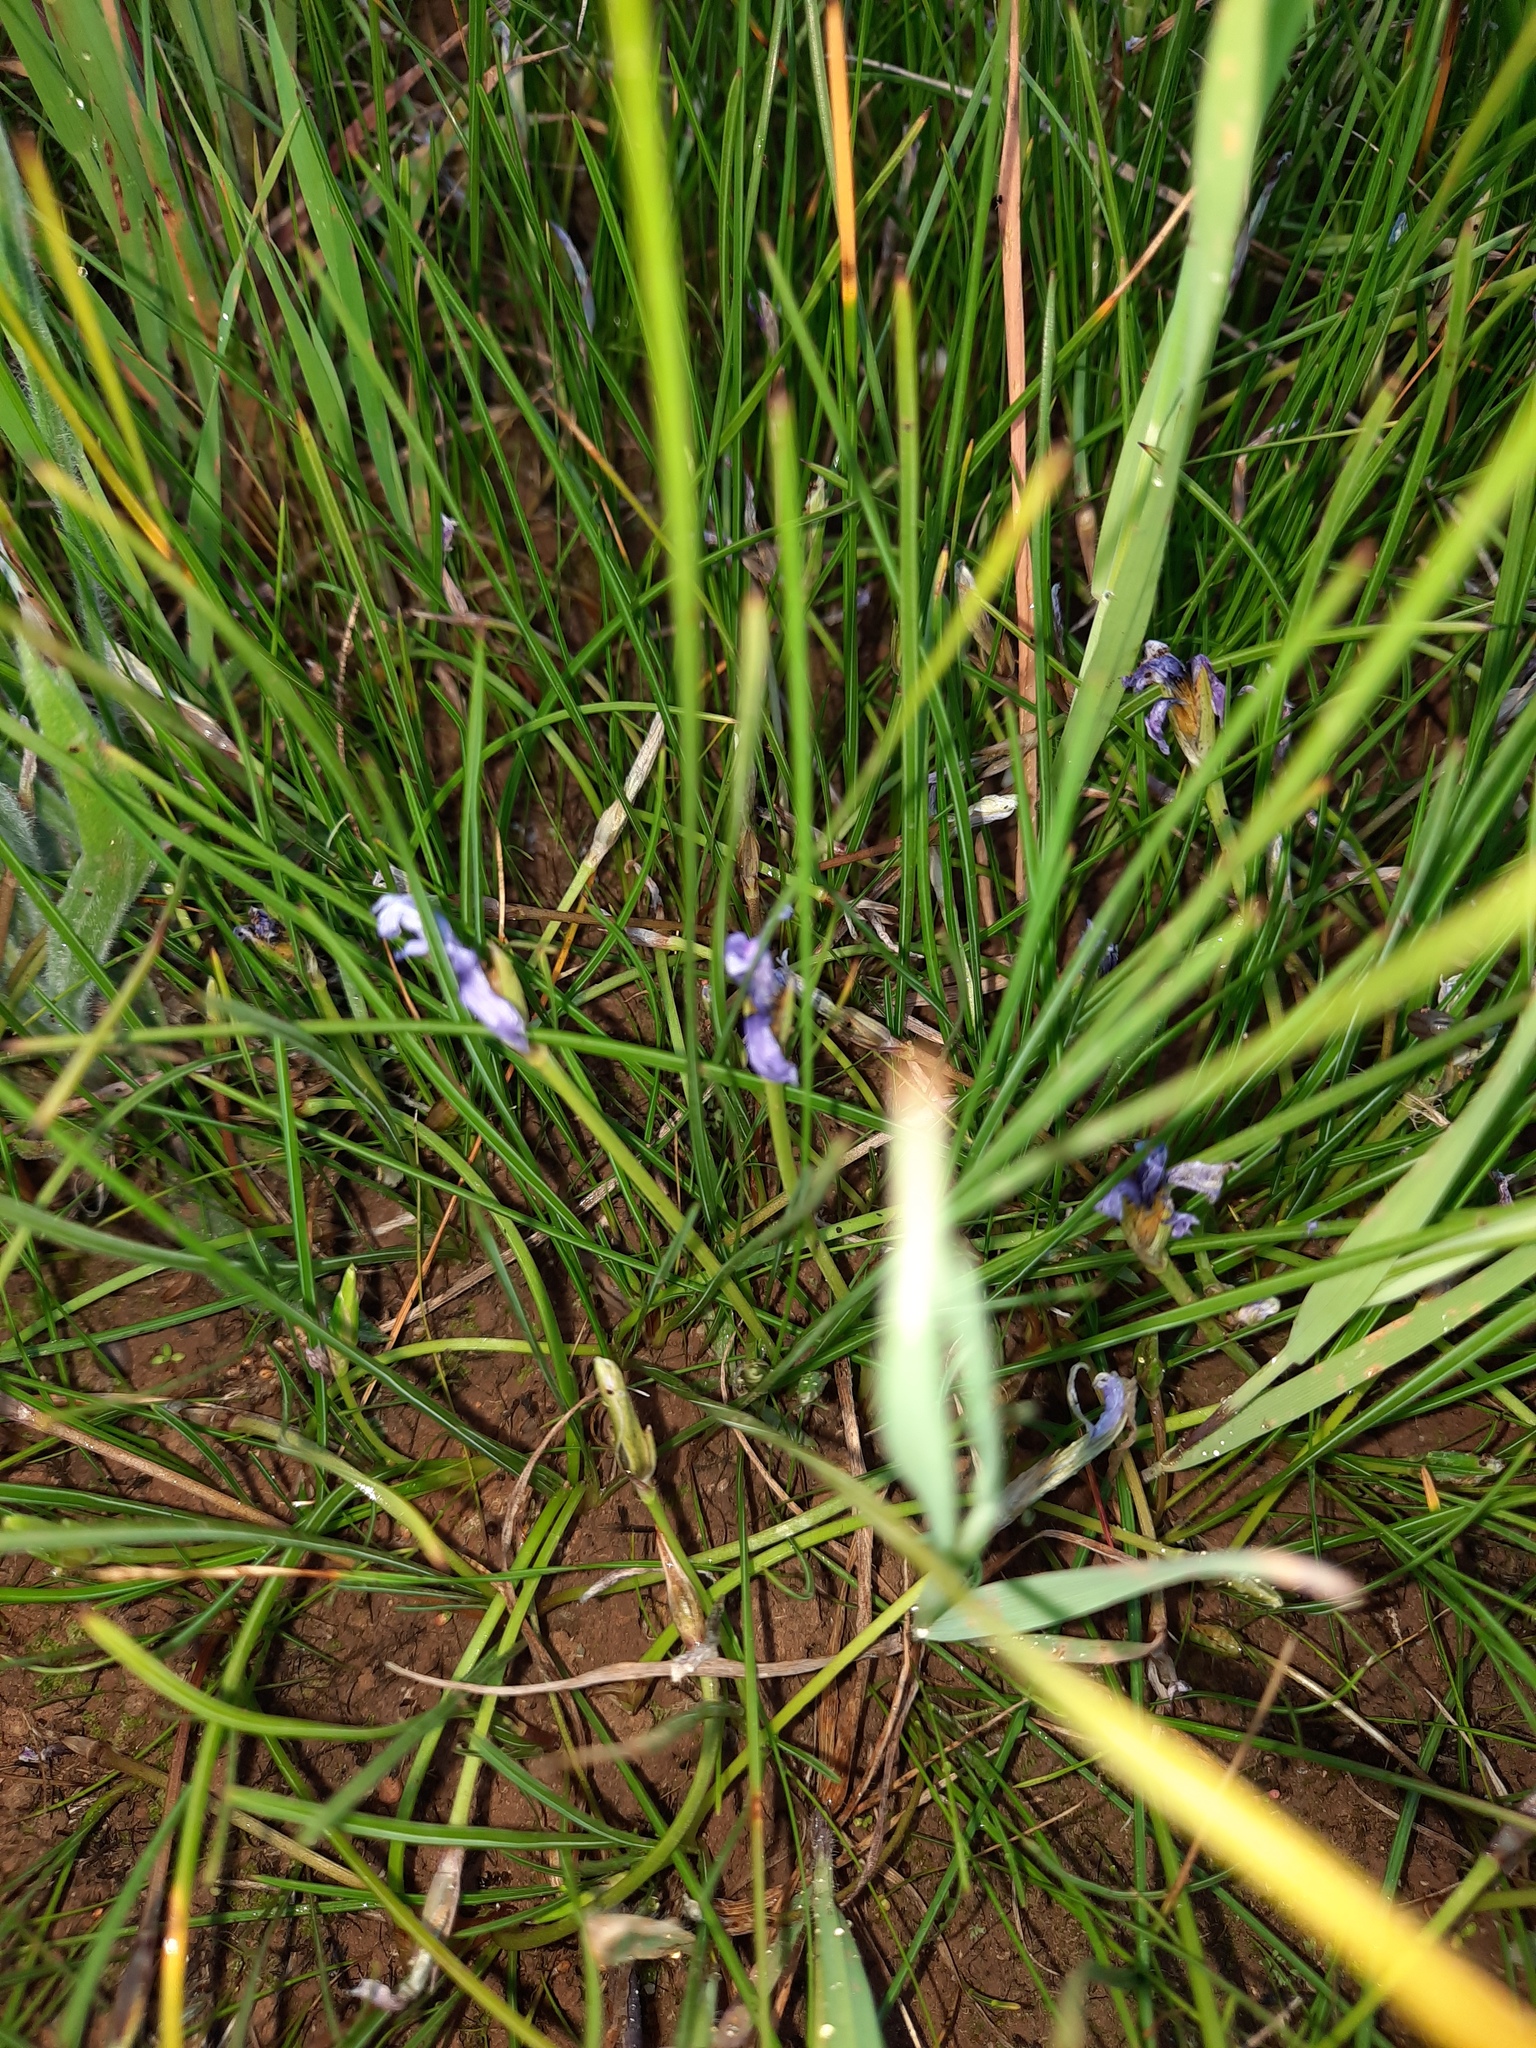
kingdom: Plantae
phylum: Tracheophyta
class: Liliopsida
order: Asparagales
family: Iridaceae
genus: Romulea
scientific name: Romulea rosea
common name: Oniongrass
